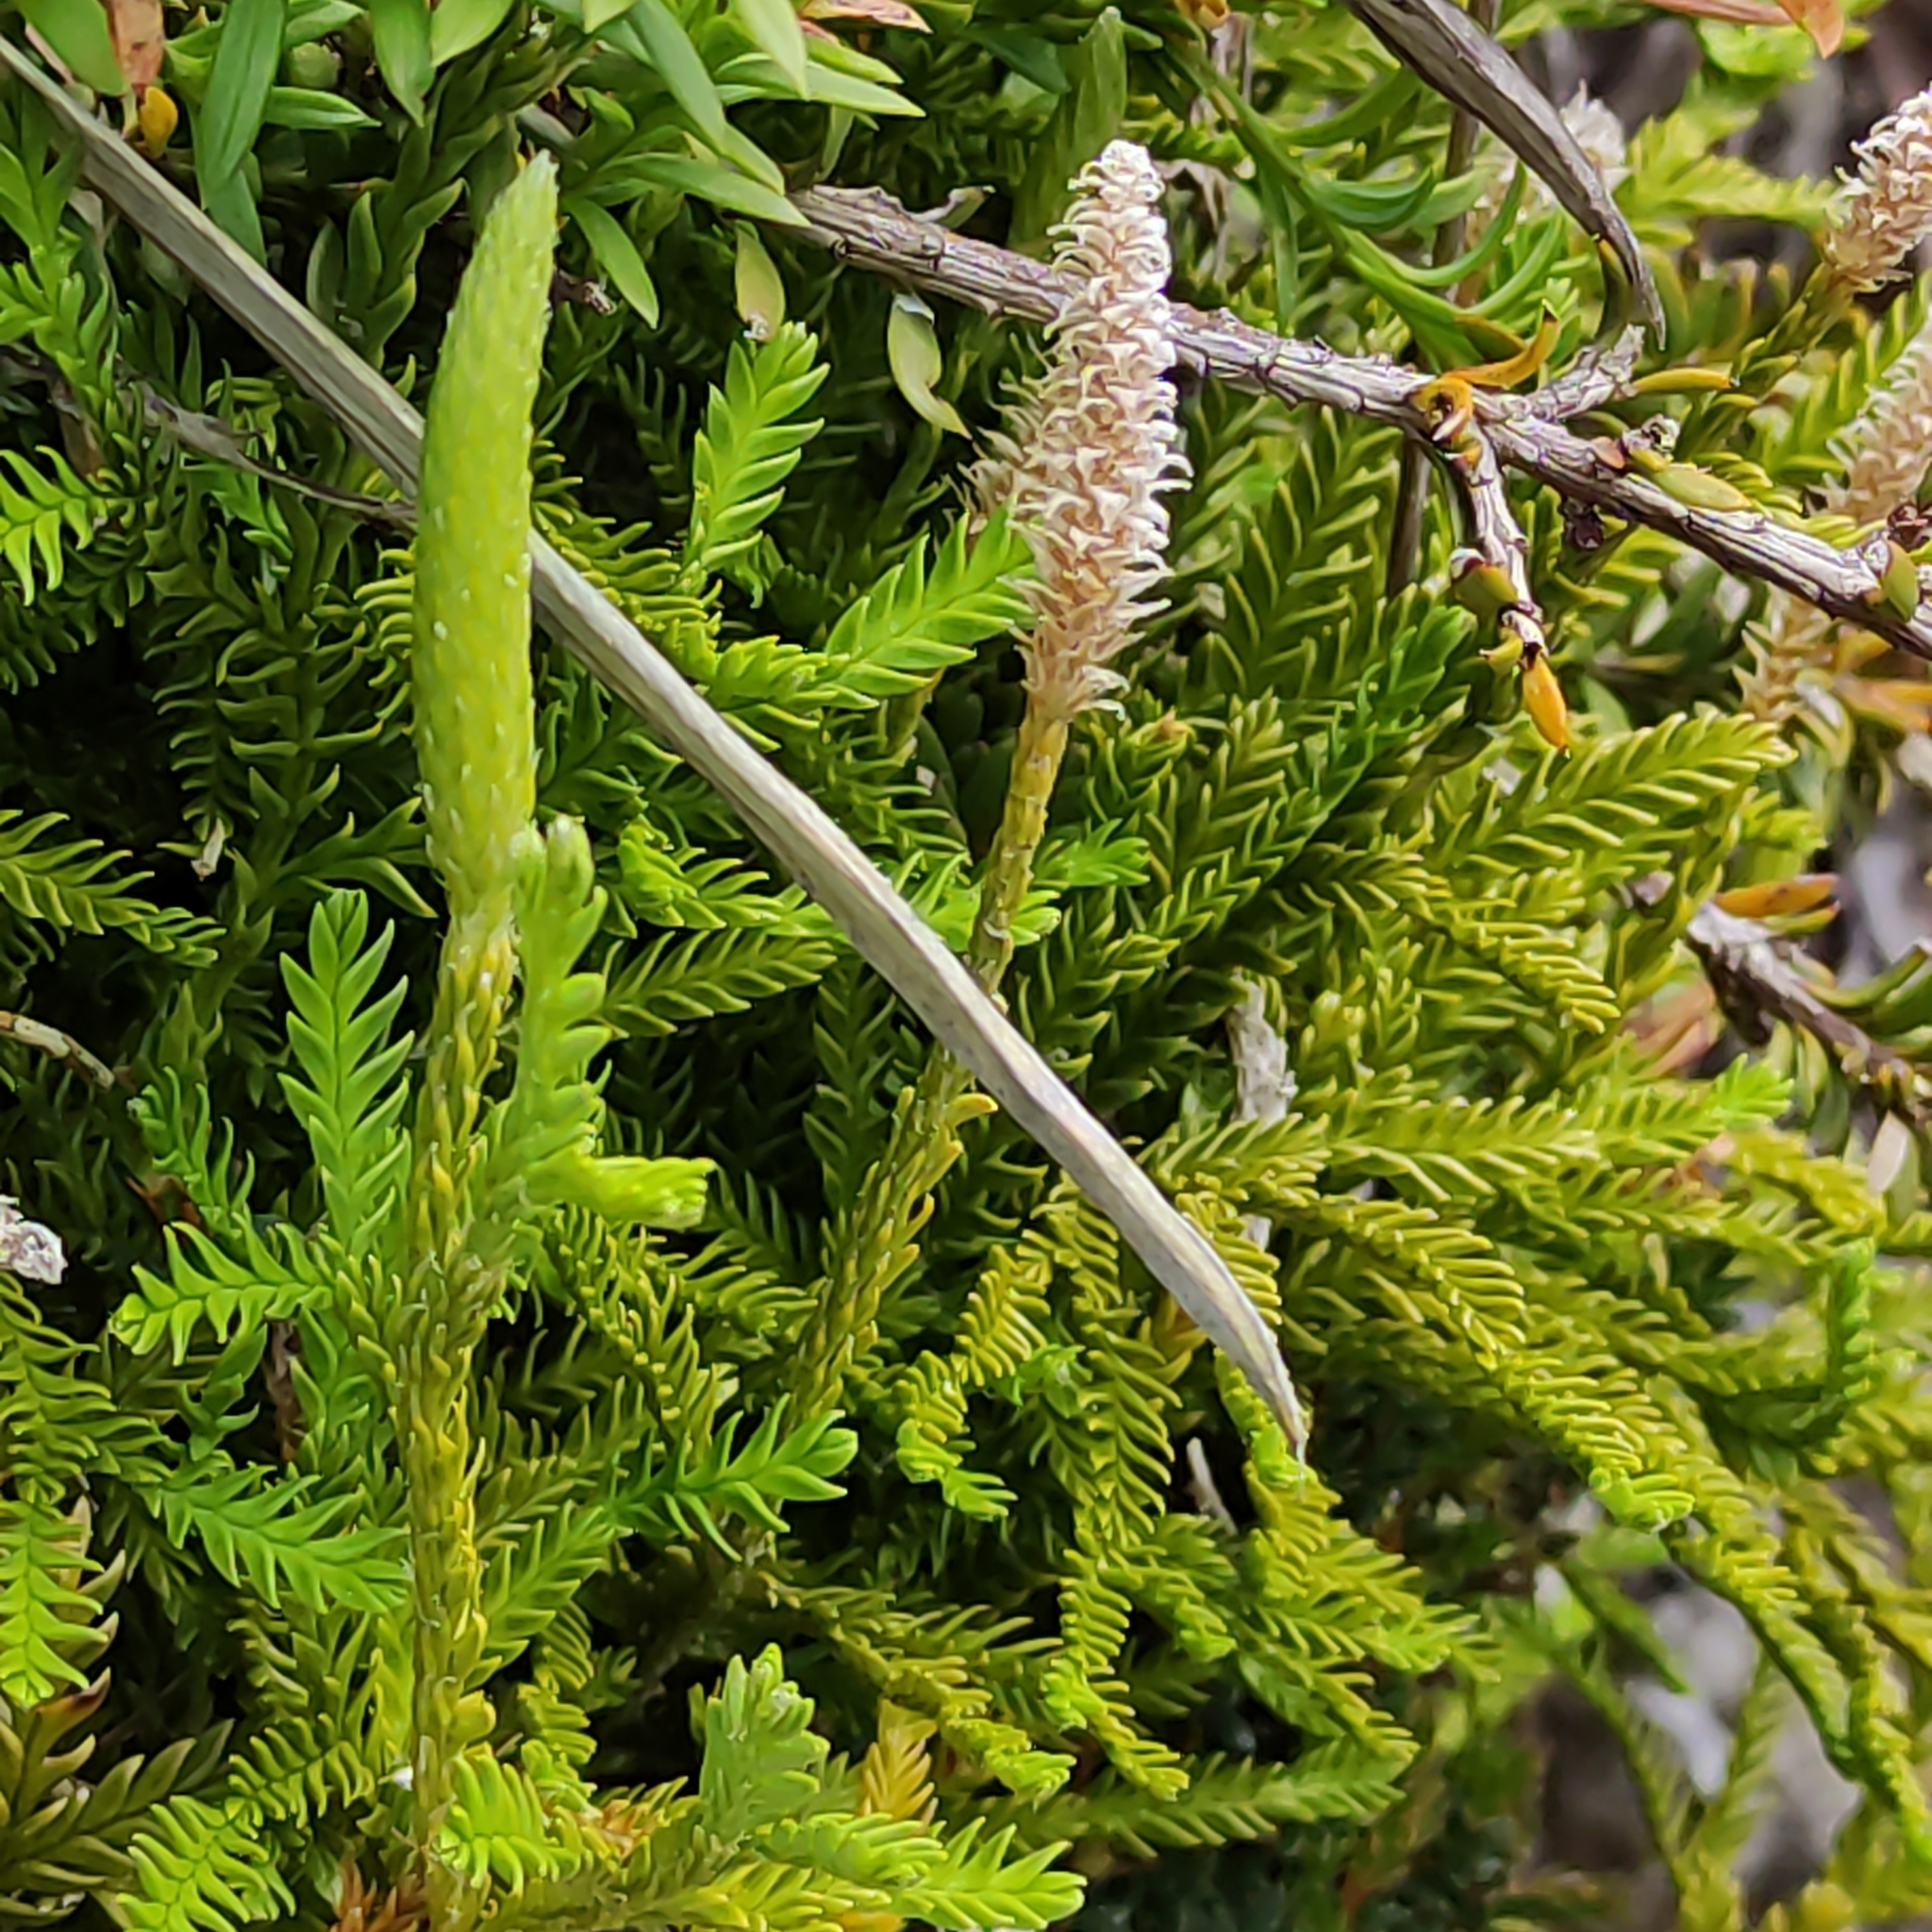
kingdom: Plantae
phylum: Tracheophyta
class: Lycopodiopsida
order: Lycopodiales
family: Lycopodiaceae
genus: Diphasium
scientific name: Diphasium scariosum
